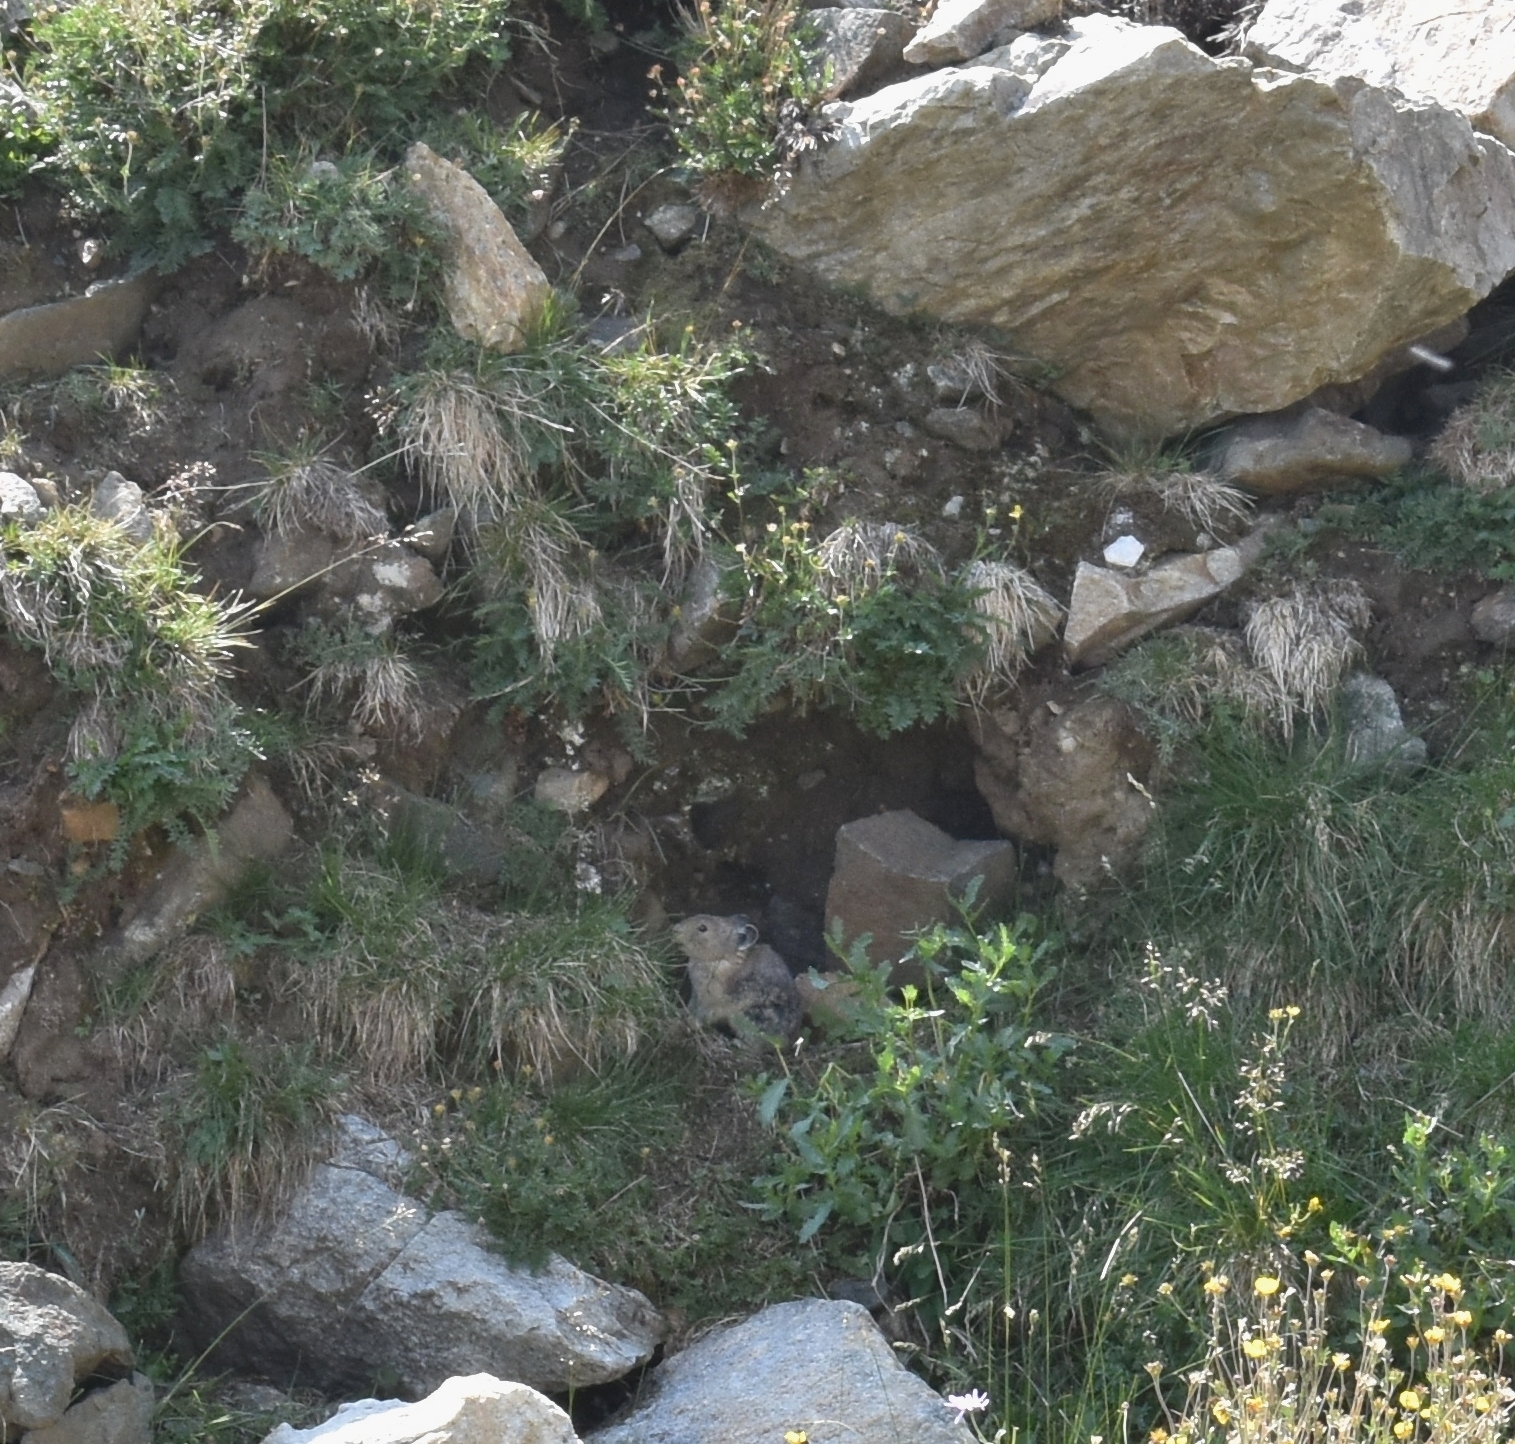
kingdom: Animalia
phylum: Chordata
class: Mammalia
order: Lagomorpha
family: Ochotonidae
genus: Ochotona
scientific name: Ochotona princeps
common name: American pika
